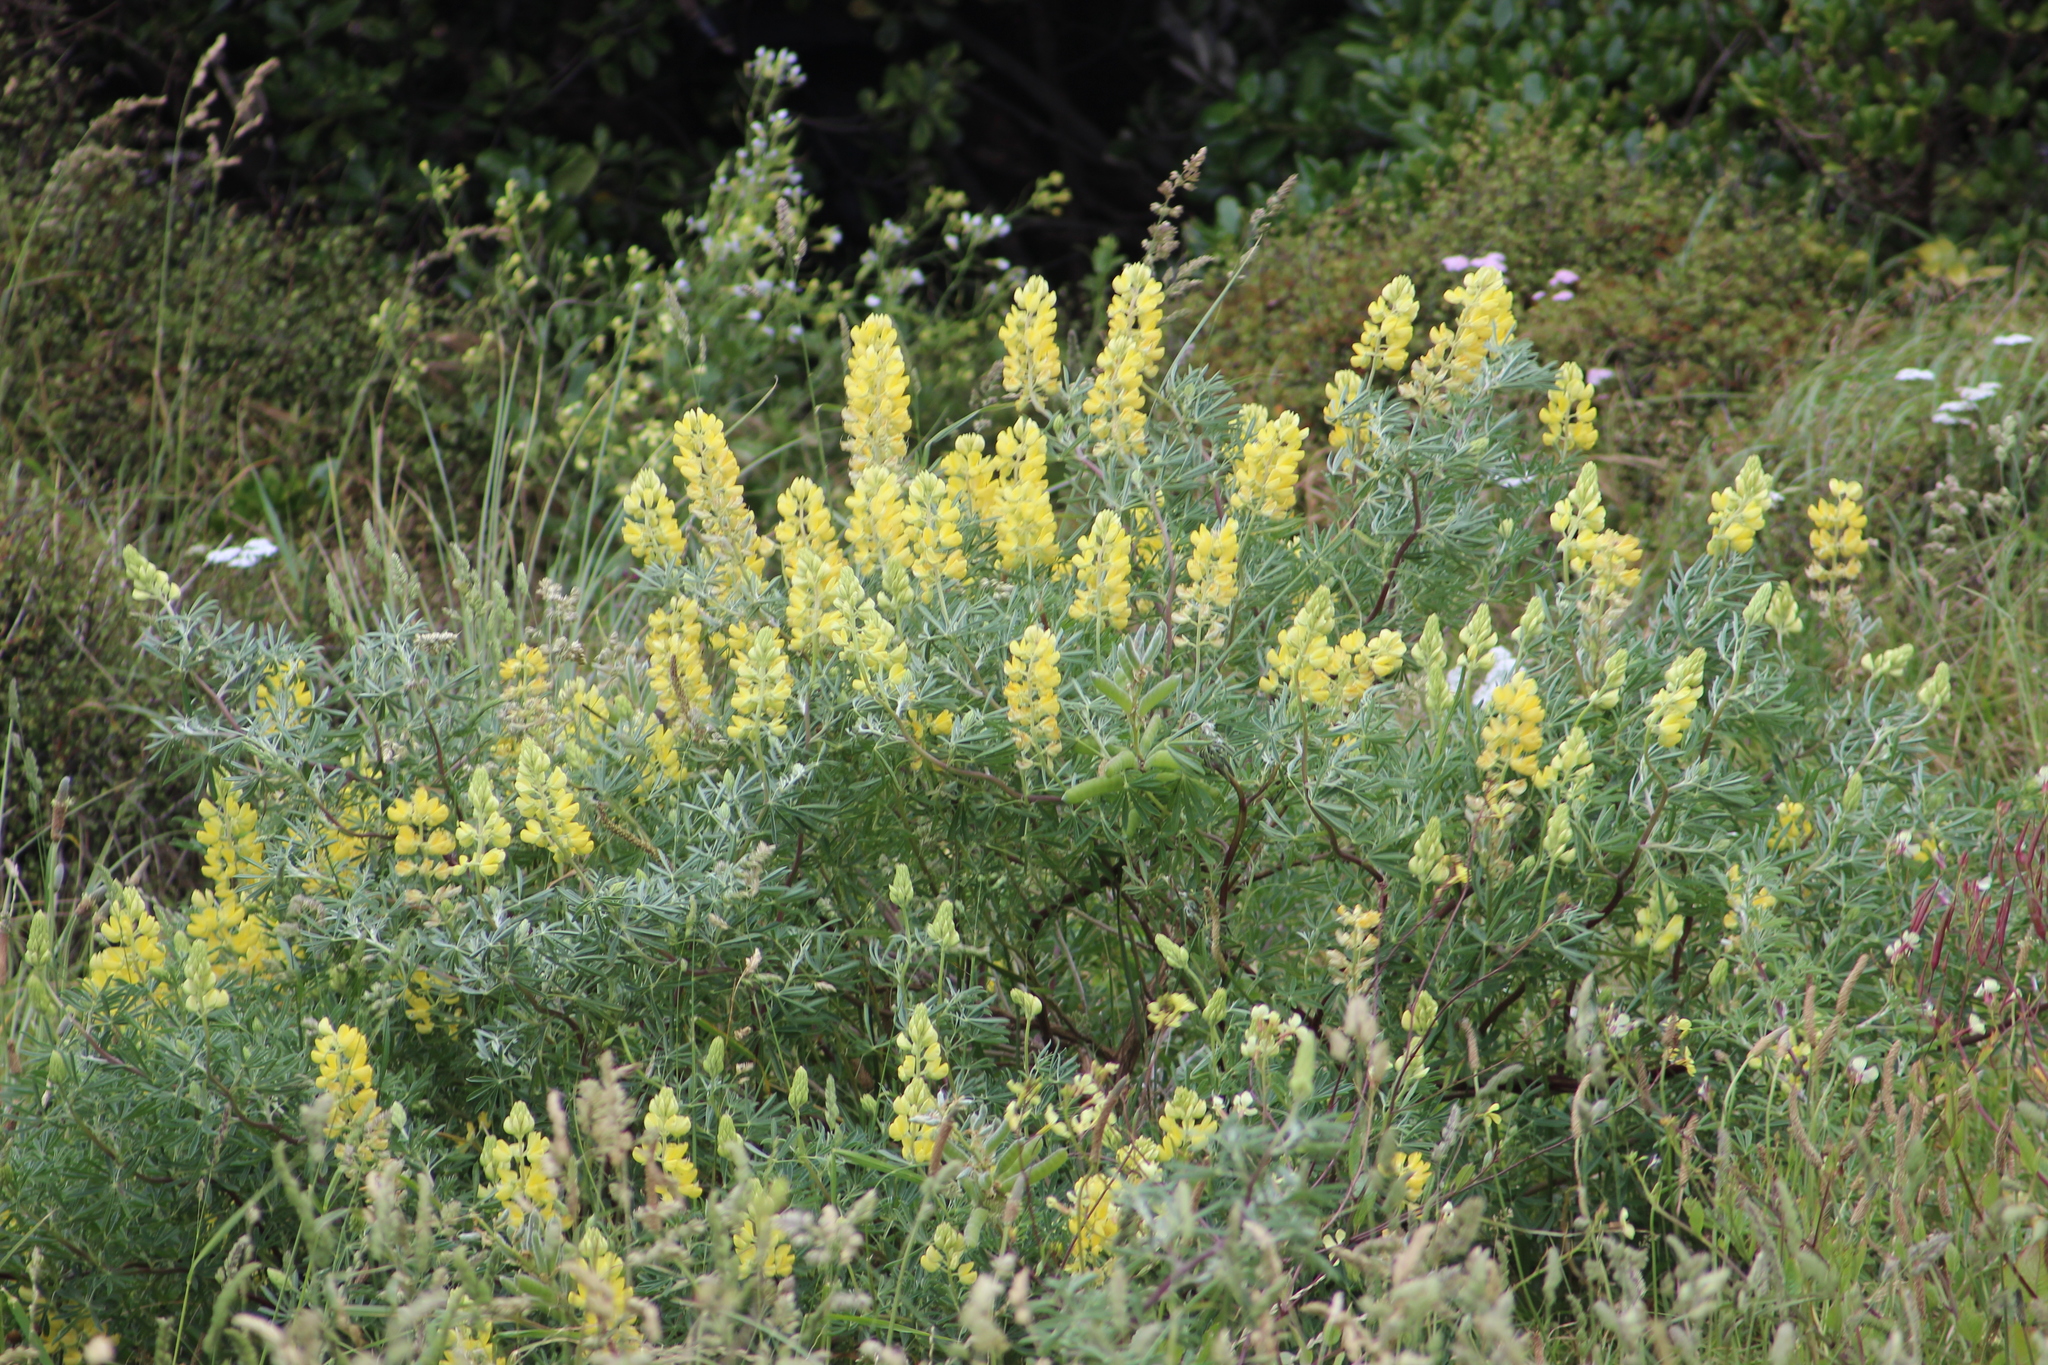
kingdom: Plantae
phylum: Tracheophyta
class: Magnoliopsida
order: Fabales
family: Fabaceae
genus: Lupinus
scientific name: Lupinus arboreus
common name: Yellow bush lupine
